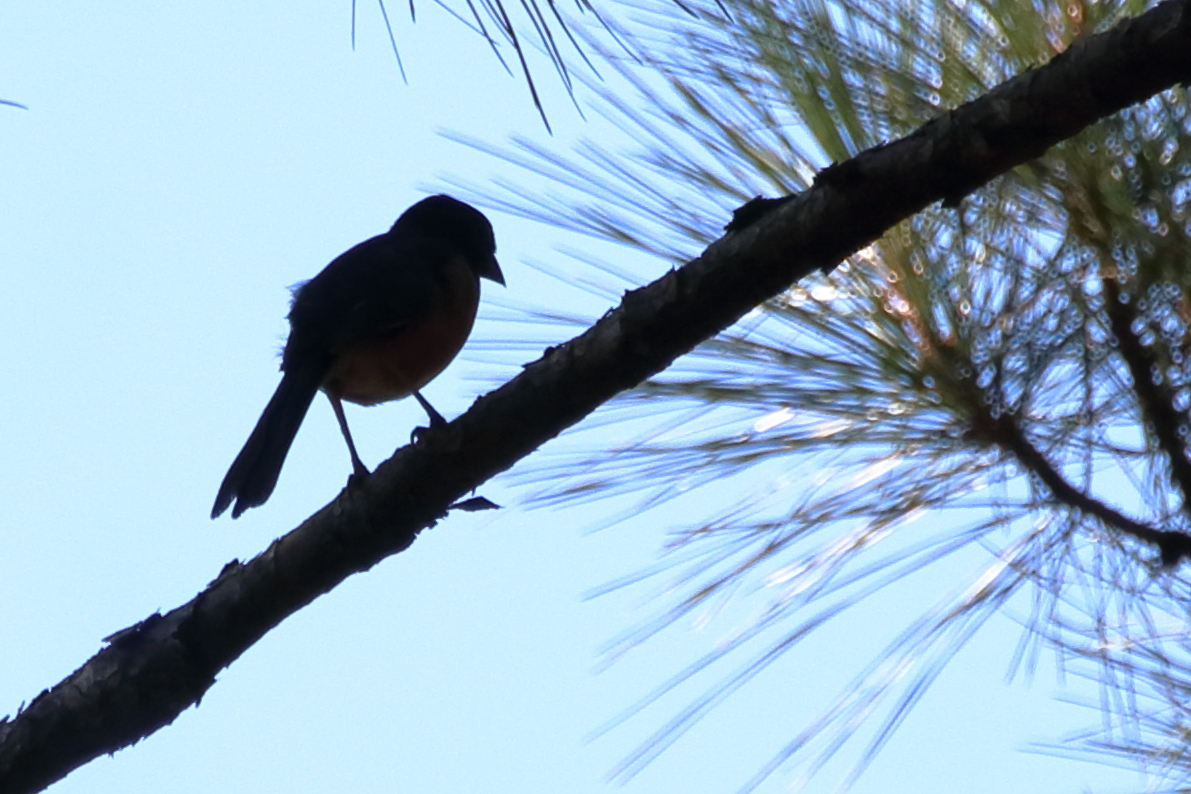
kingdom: Animalia
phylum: Chordata
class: Aves
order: Passeriformes
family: Passerellidae
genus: Pipilo
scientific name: Pipilo erythrophthalmus
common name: Eastern towhee
